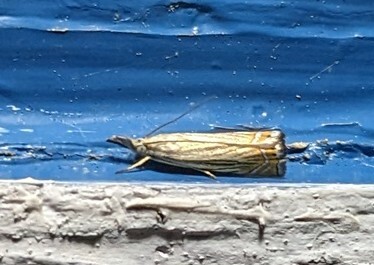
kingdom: Animalia
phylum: Arthropoda
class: Insecta
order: Lepidoptera
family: Crambidae
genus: Chrysoteuchia
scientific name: Chrysoteuchia topiarius
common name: Topiary grass-veneer
